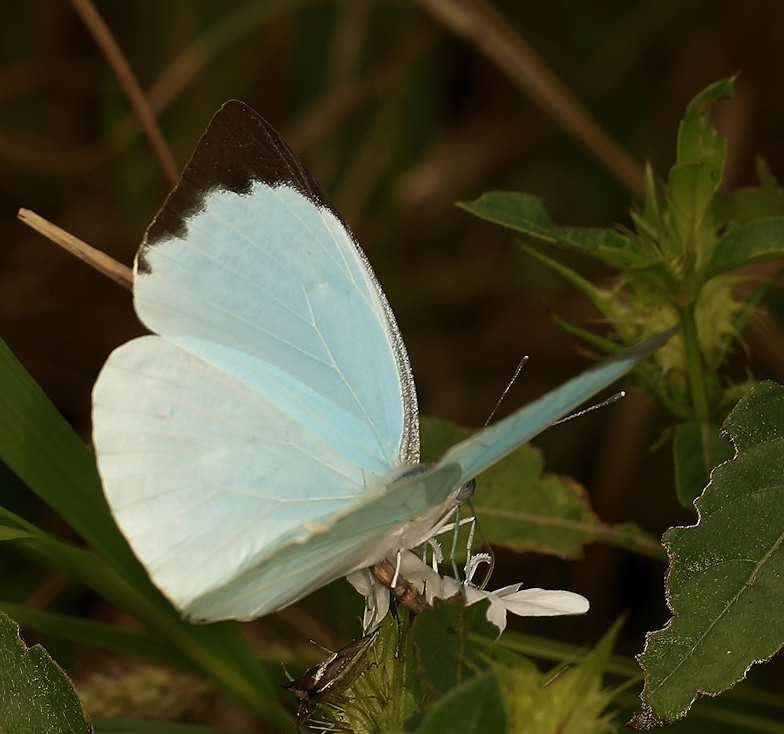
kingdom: Animalia
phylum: Arthropoda
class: Insecta
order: Lepidoptera
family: Pieridae
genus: Nepheronia
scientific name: Nepheronia thalassina
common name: Cambridge vagrant
